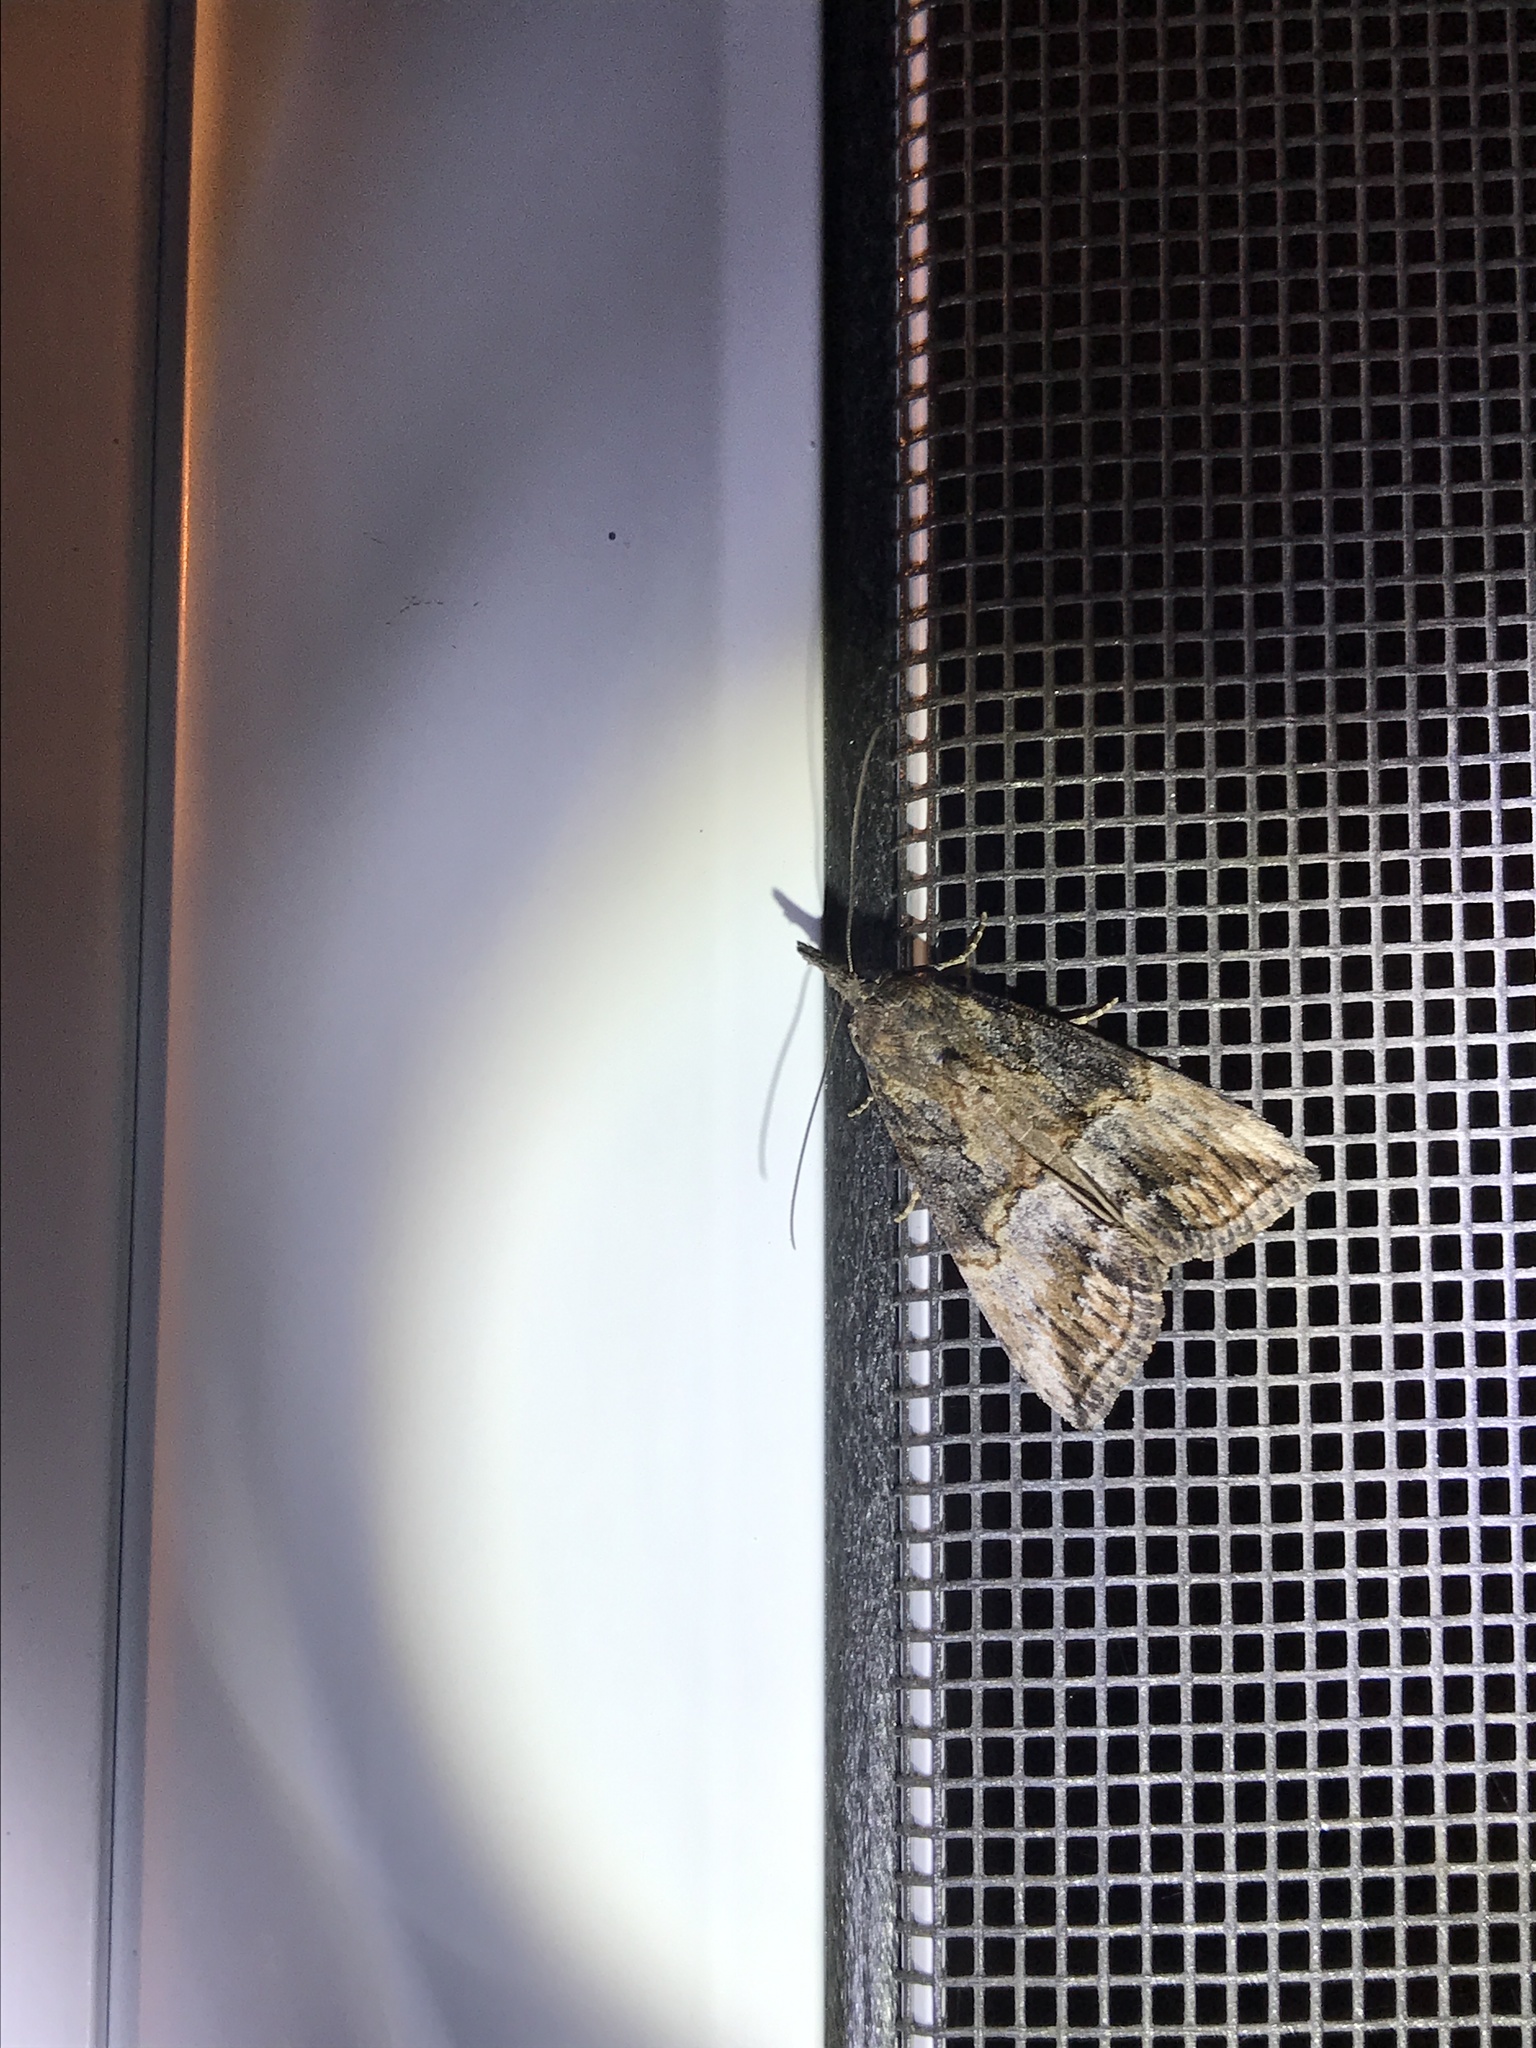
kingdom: Animalia
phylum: Arthropoda
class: Insecta
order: Lepidoptera
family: Erebidae
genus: Hypena
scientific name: Hypena scabra
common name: Green cloverworm
